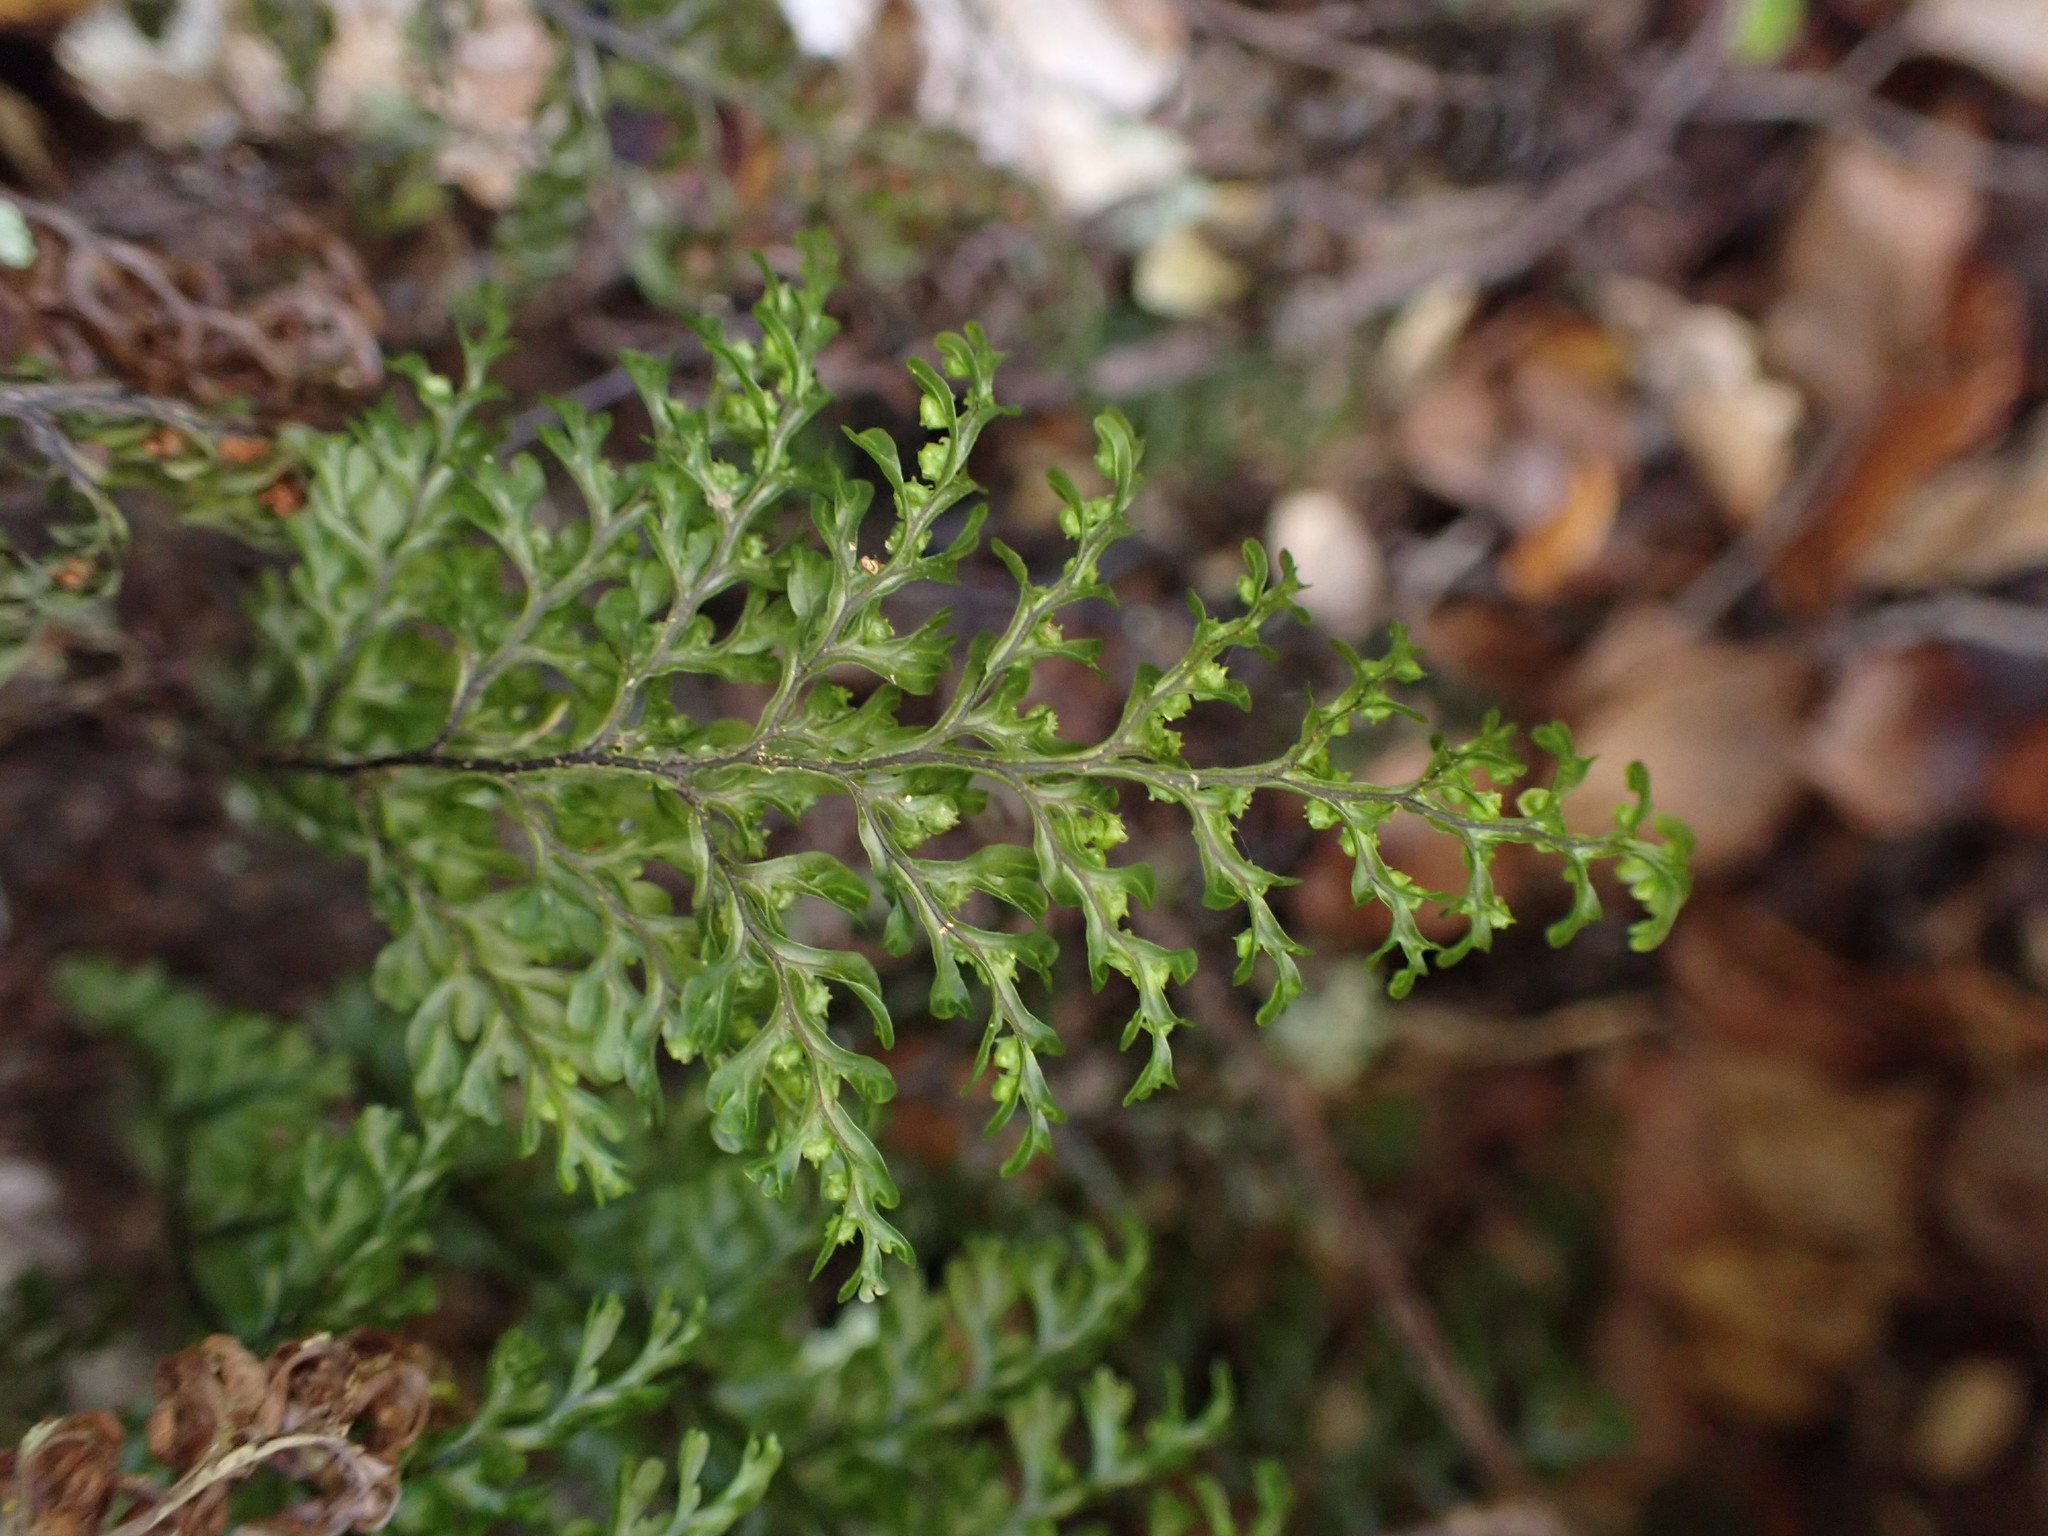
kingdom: Plantae
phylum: Tracheophyta
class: Polypodiopsida
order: Hymenophyllales
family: Hymenophyllaceae
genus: Hymenophyllum
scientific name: Hymenophyllum sanguinolentum
